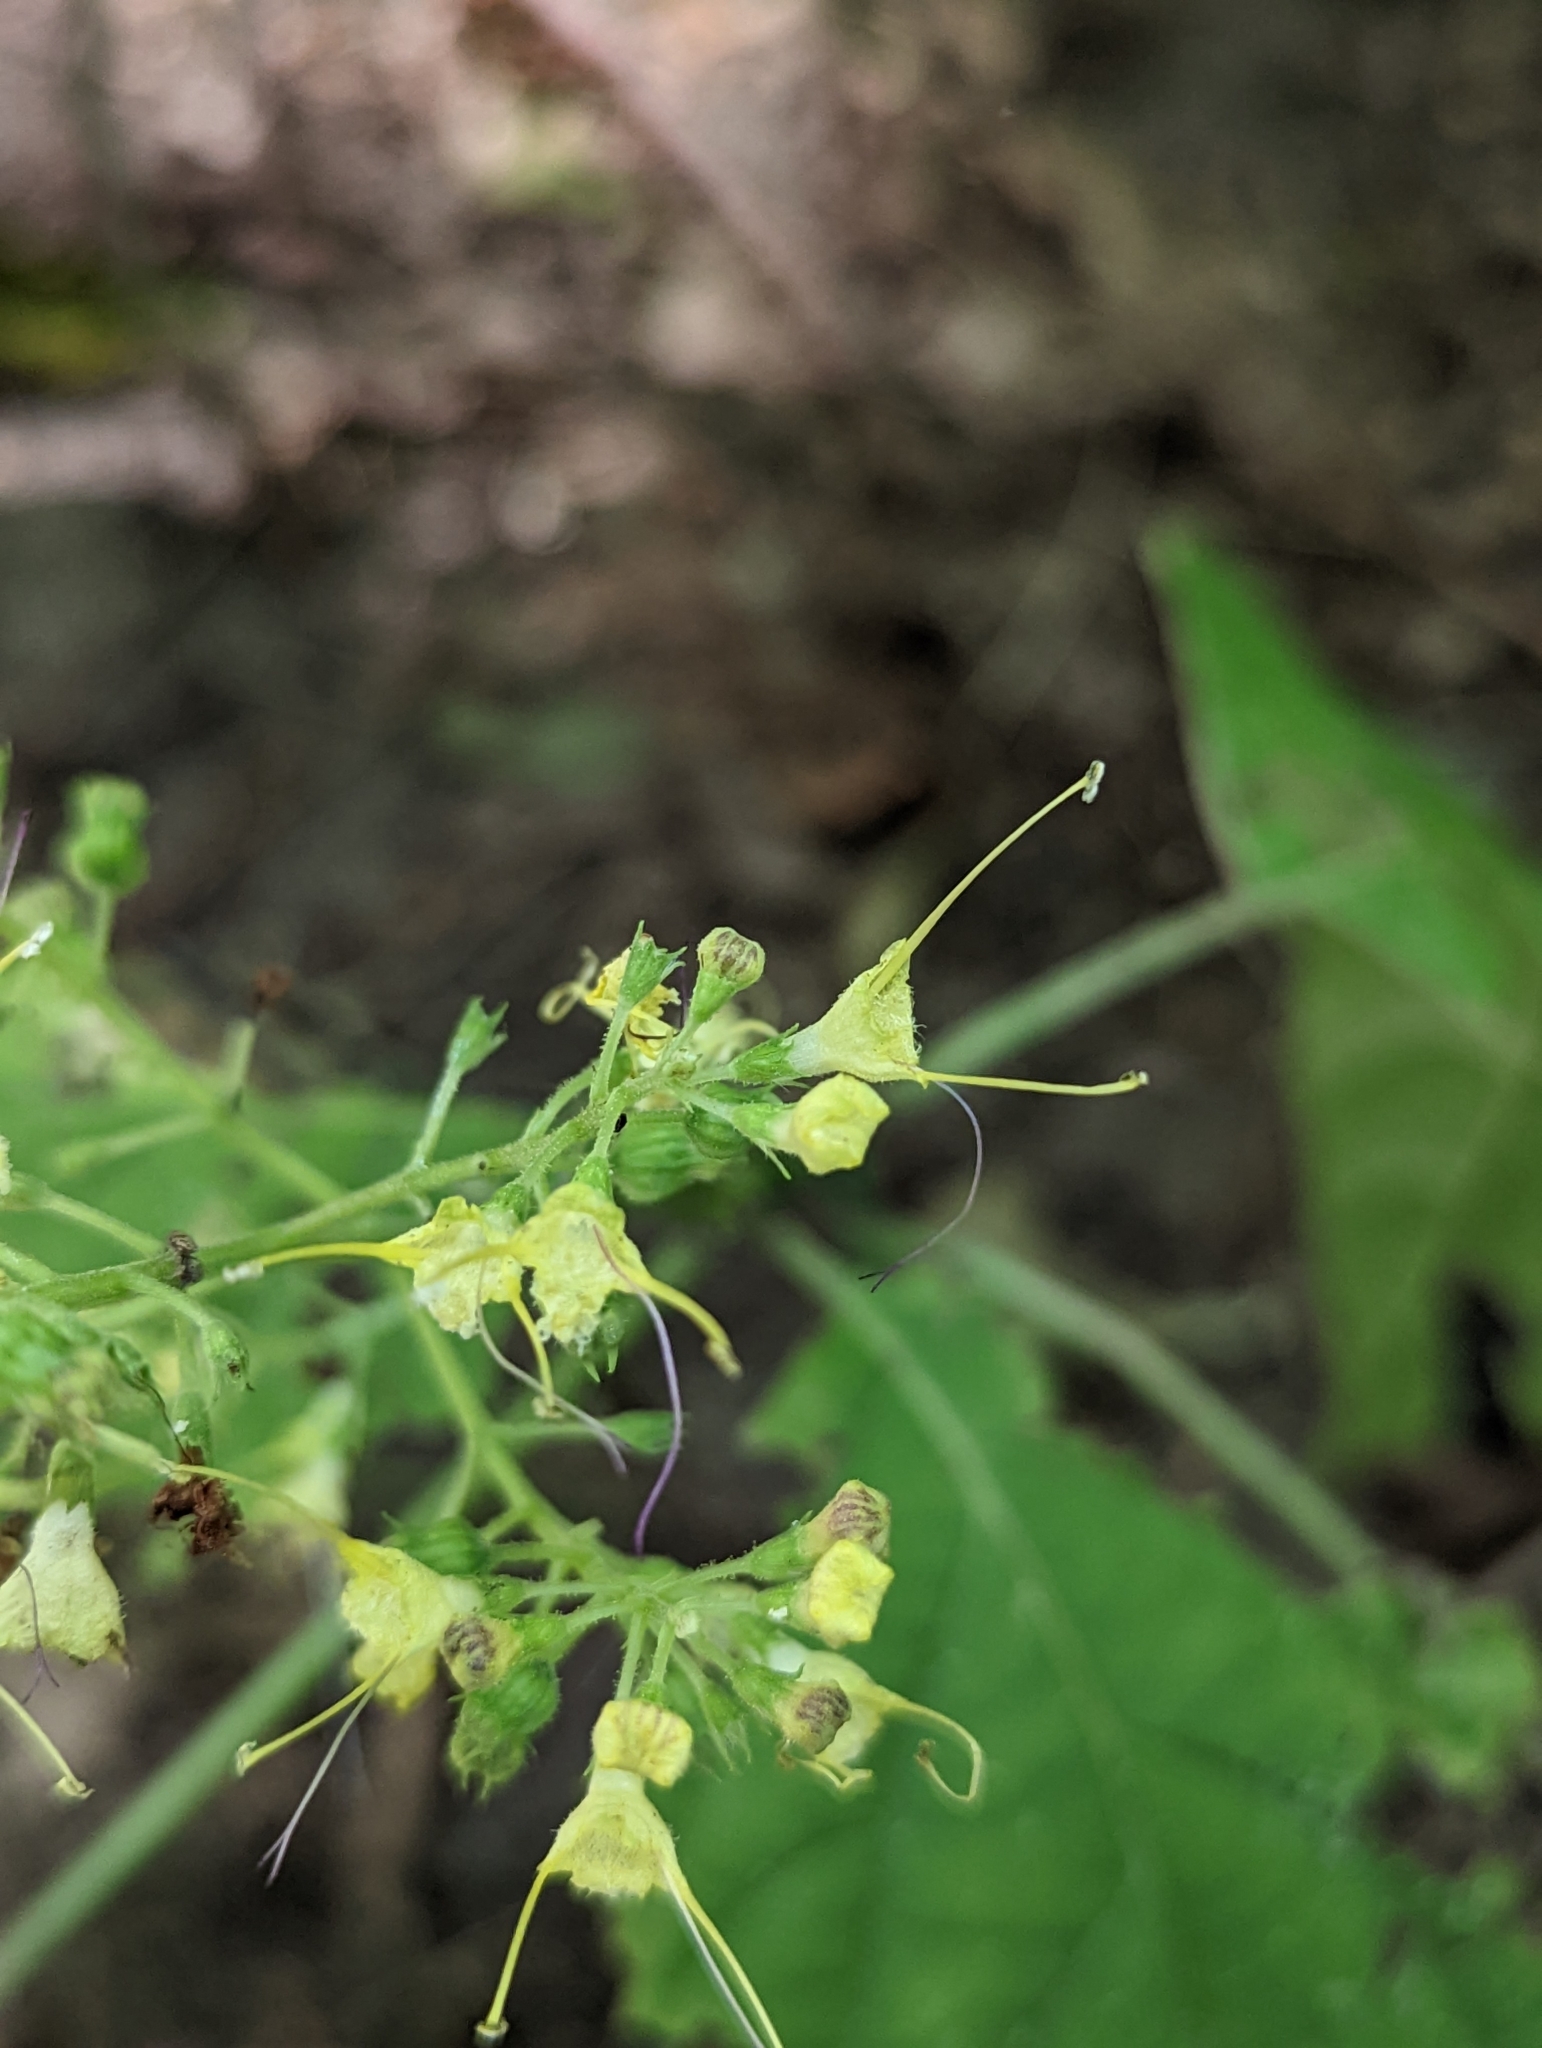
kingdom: Plantae
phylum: Tracheophyta
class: Magnoliopsida
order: Lamiales
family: Lamiaceae
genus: Collinsonia
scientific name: Collinsonia canadensis
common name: Northern horsebalm
